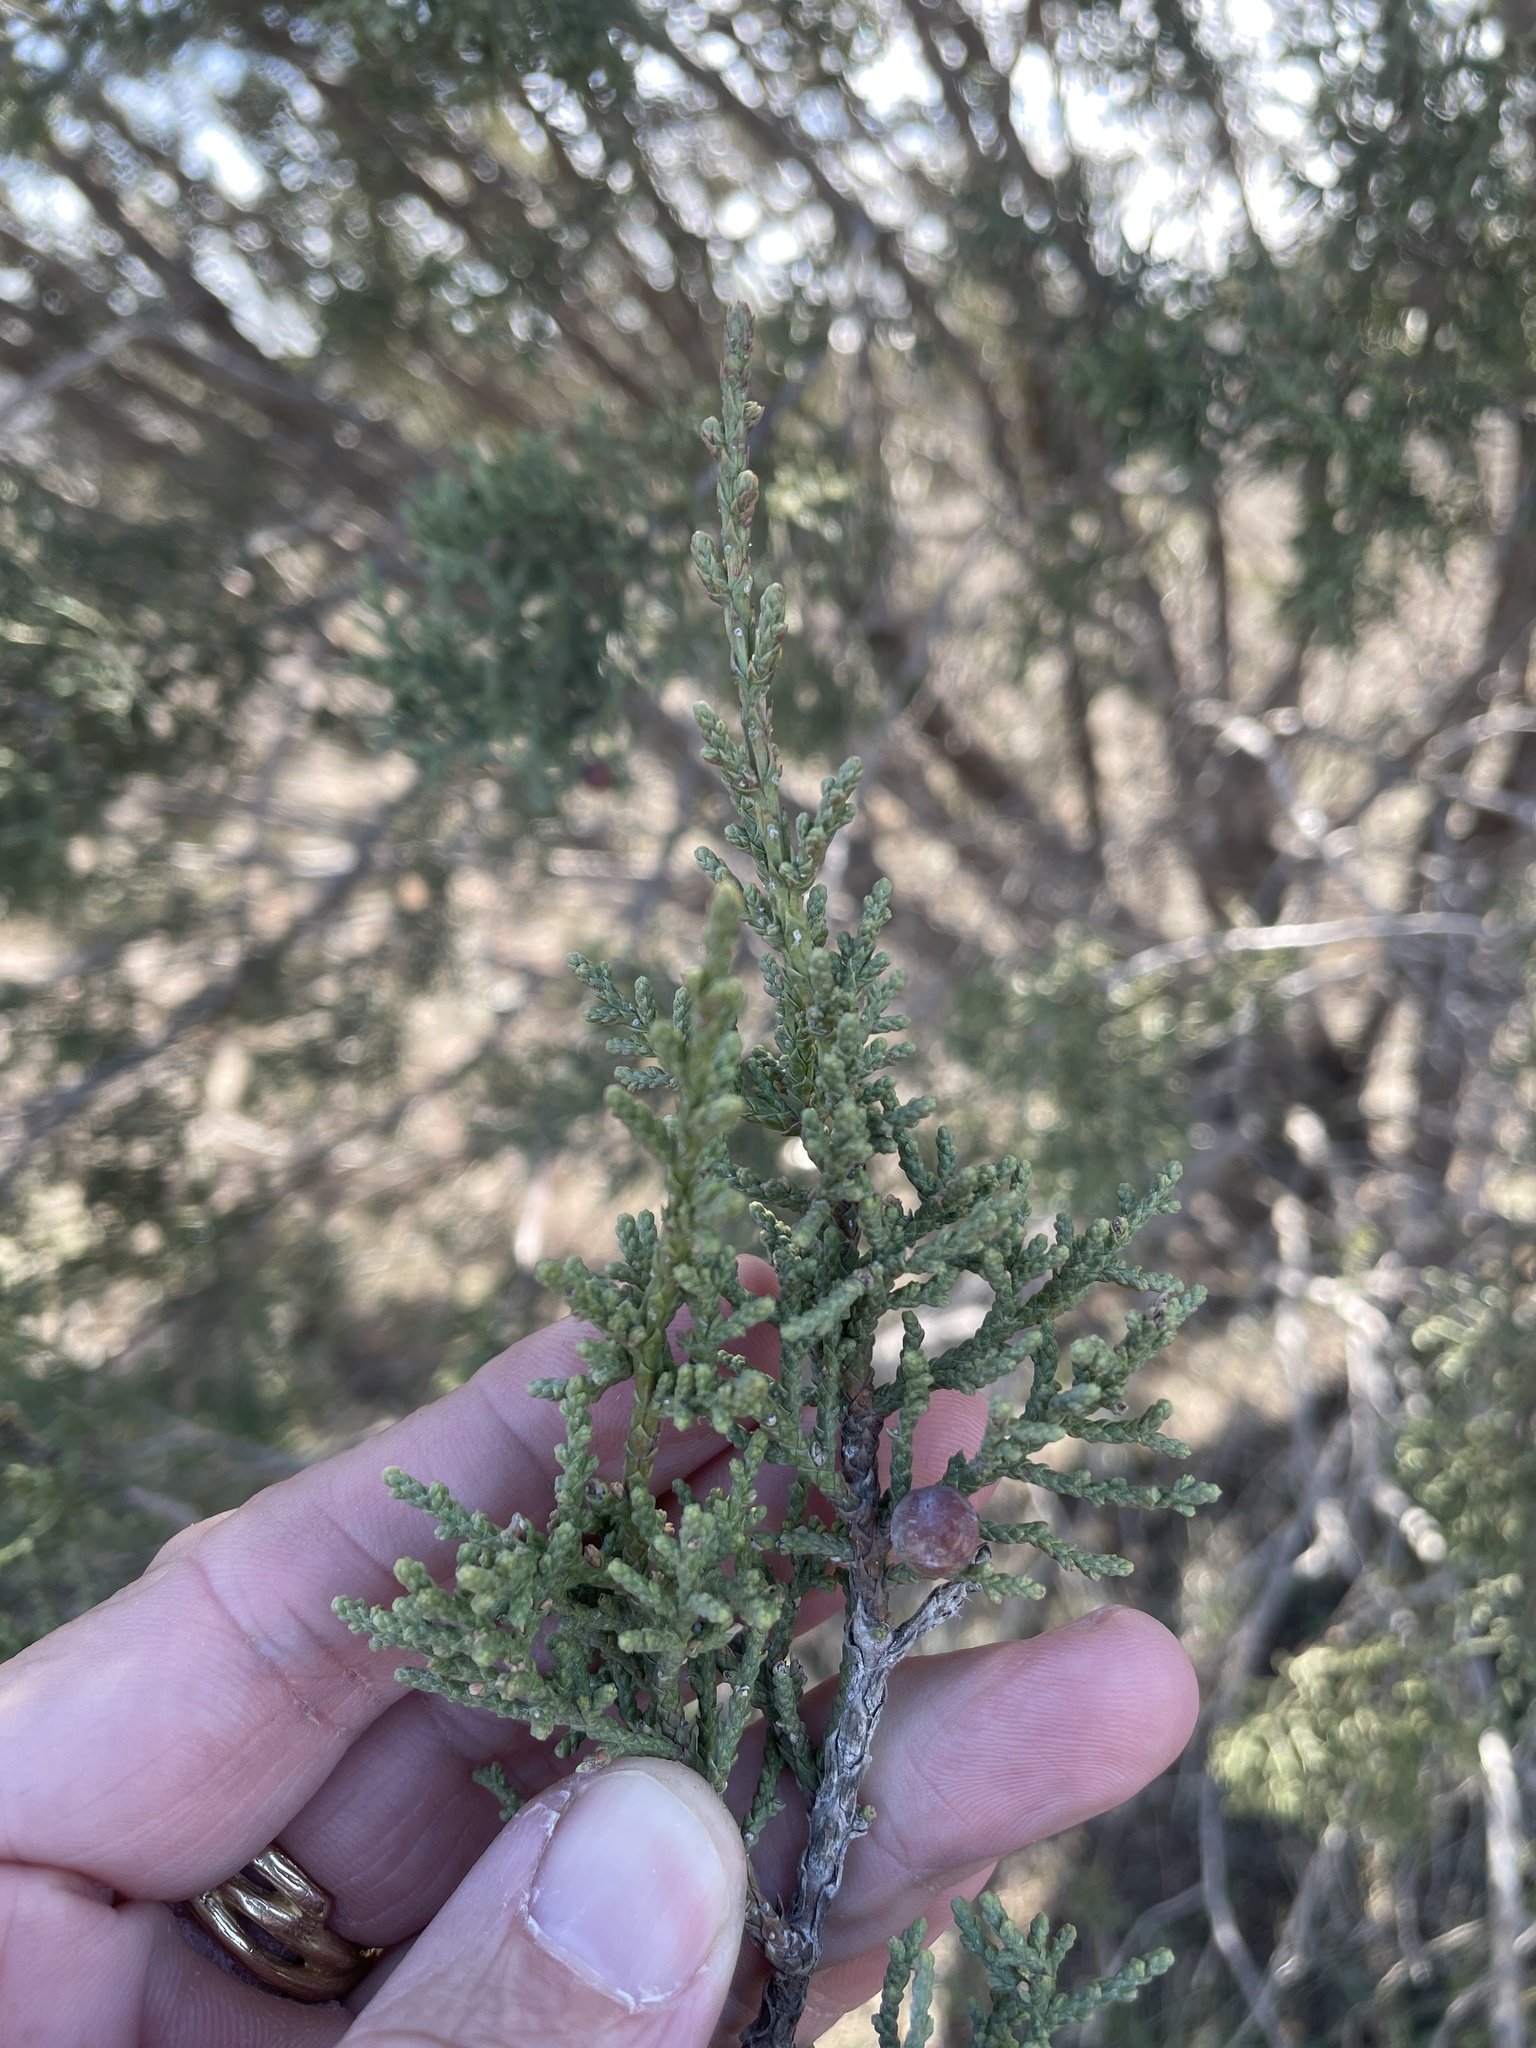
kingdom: Plantae
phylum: Tracheophyta
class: Pinopsida
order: Pinales
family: Cupressaceae
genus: Juniperus
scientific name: Juniperus pinchotii
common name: Pinchot juniper
